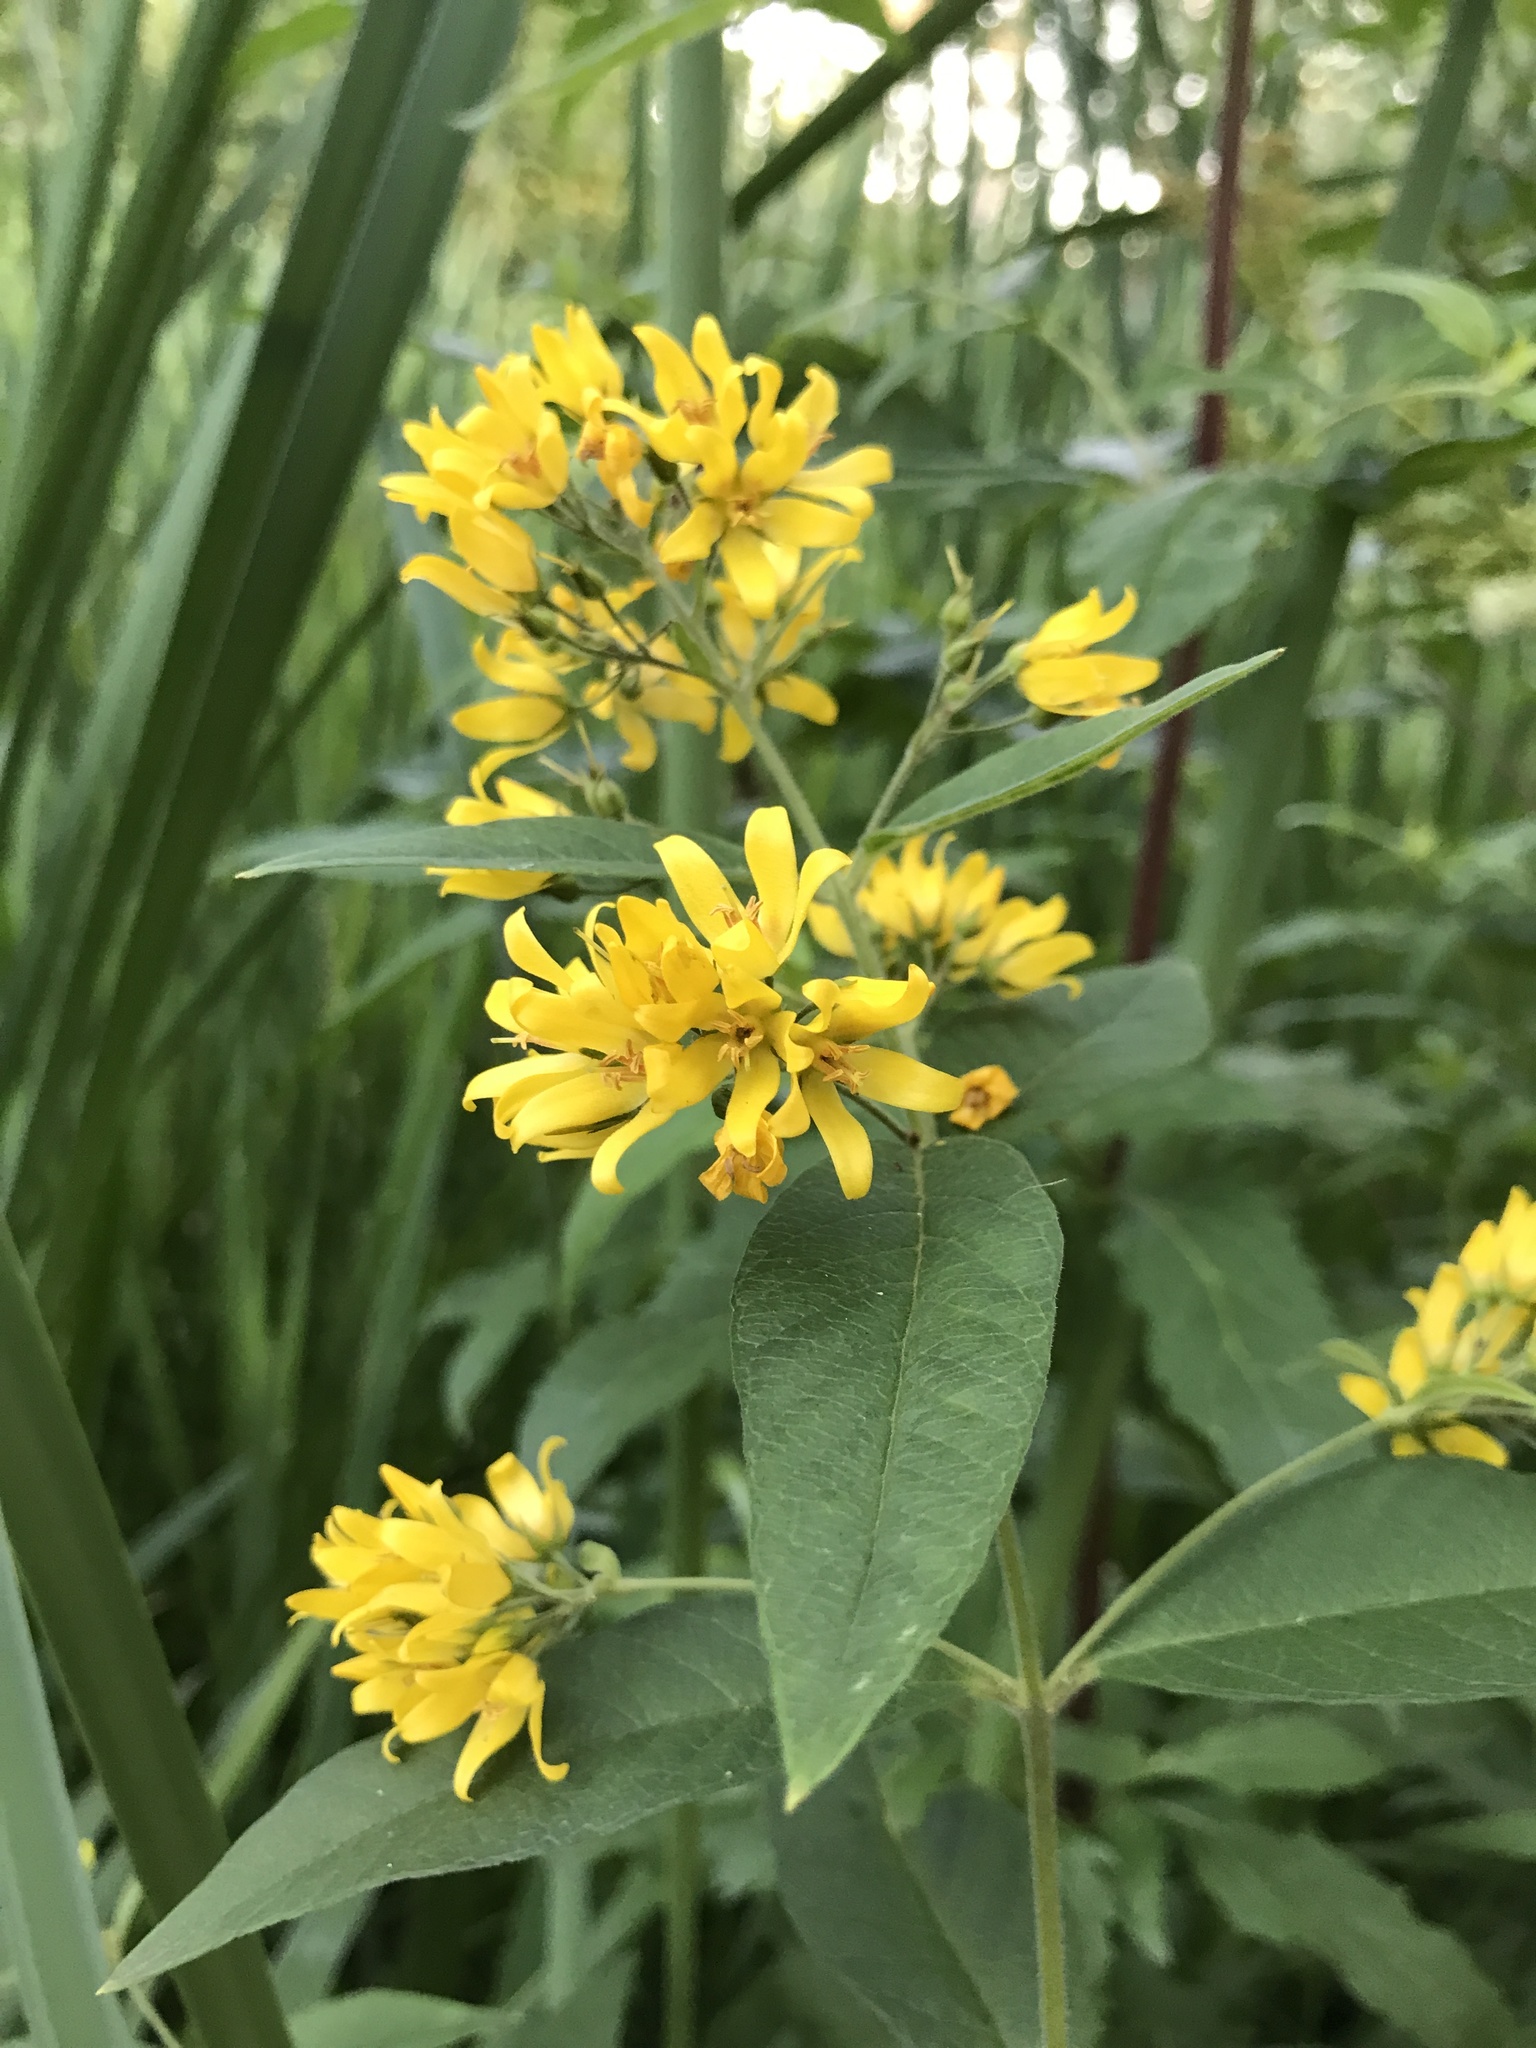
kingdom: Plantae
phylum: Tracheophyta
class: Magnoliopsida
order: Ericales
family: Primulaceae
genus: Lysimachia
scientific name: Lysimachia vulgaris
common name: Yellow loosestrife
